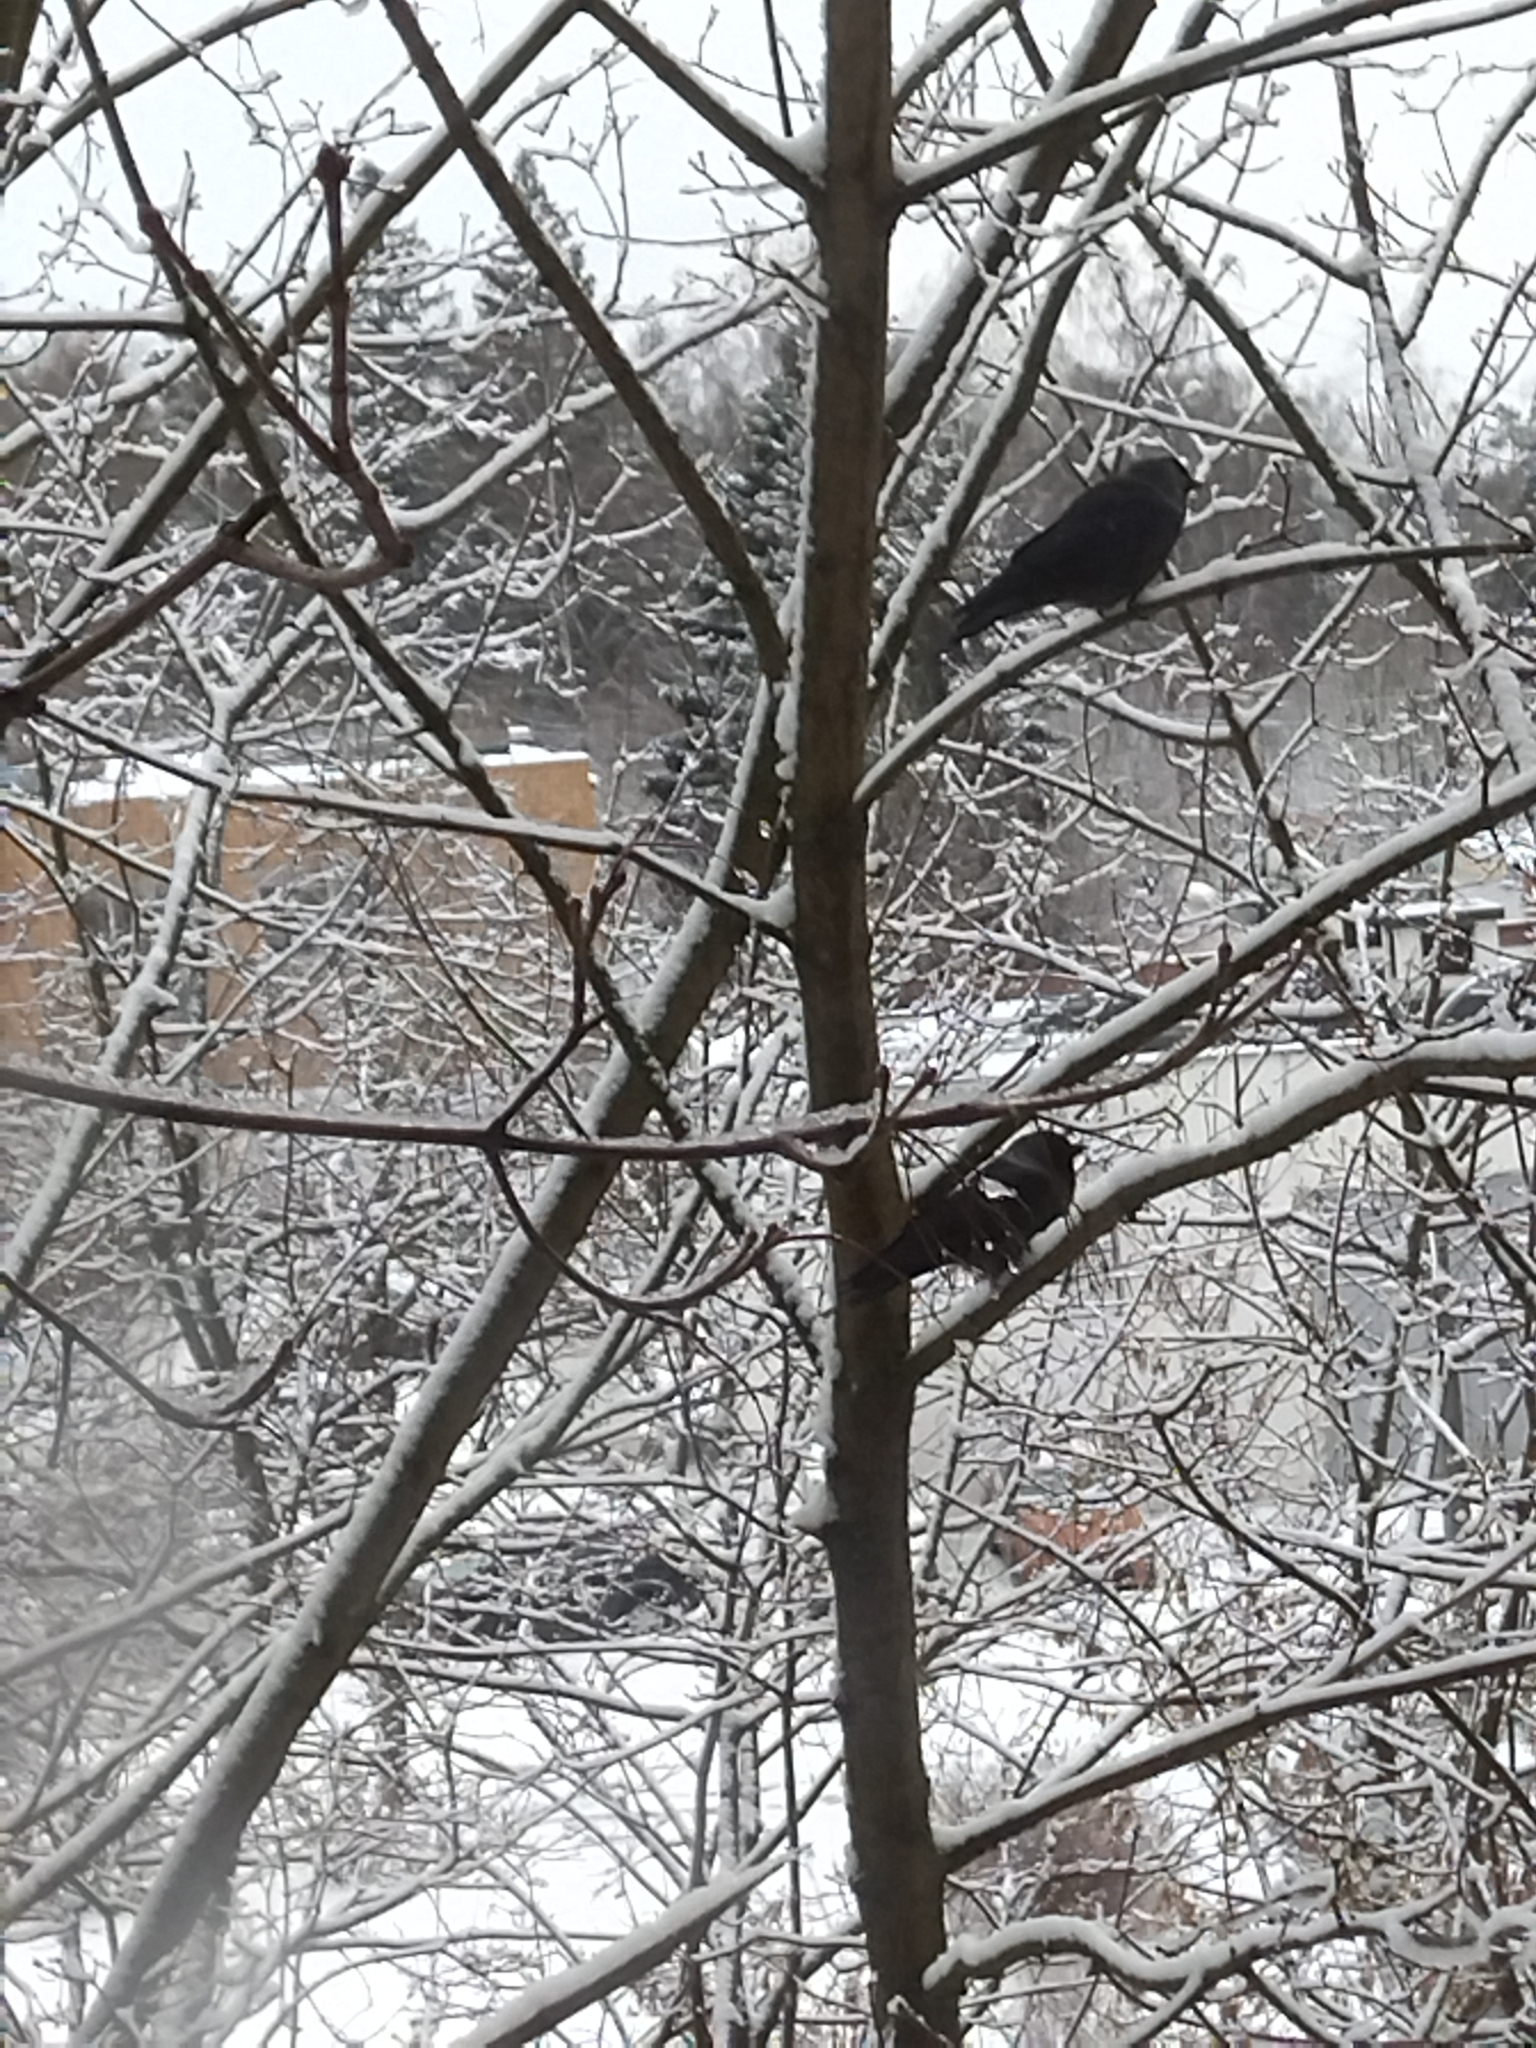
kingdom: Animalia
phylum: Chordata
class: Aves
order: Passeriformes
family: Corvidae
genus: Coloeus
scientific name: Coloeus monedula
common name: Western jackdaw
